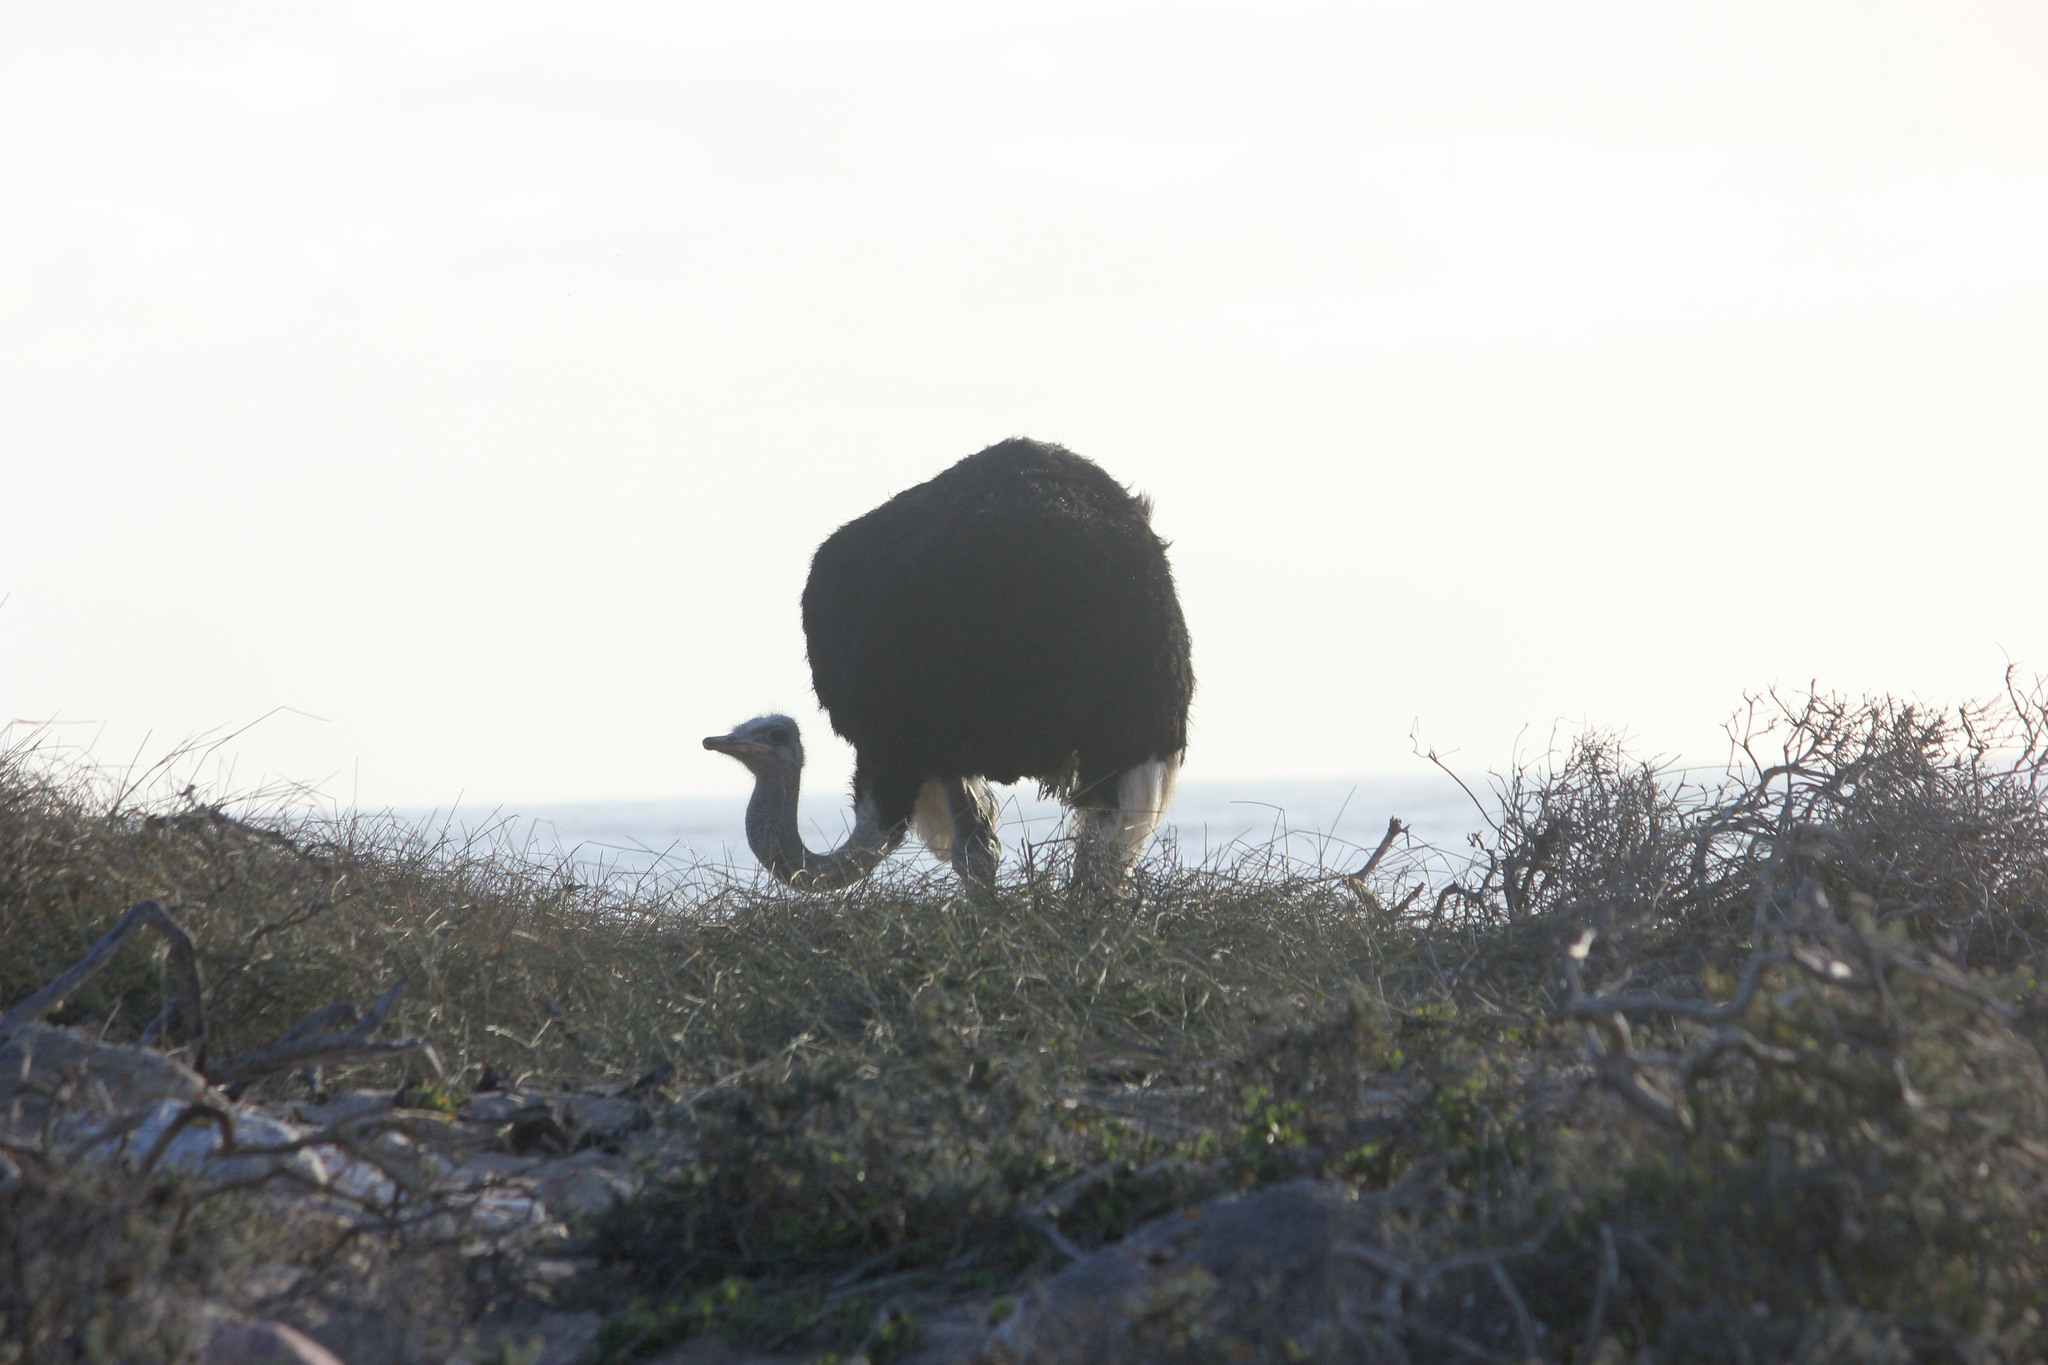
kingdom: Animalia
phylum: Chordata
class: Aves
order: Struthioniformes
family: Struthionidae
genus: Struthio
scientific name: Struthio camelus
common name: Common ostrich
